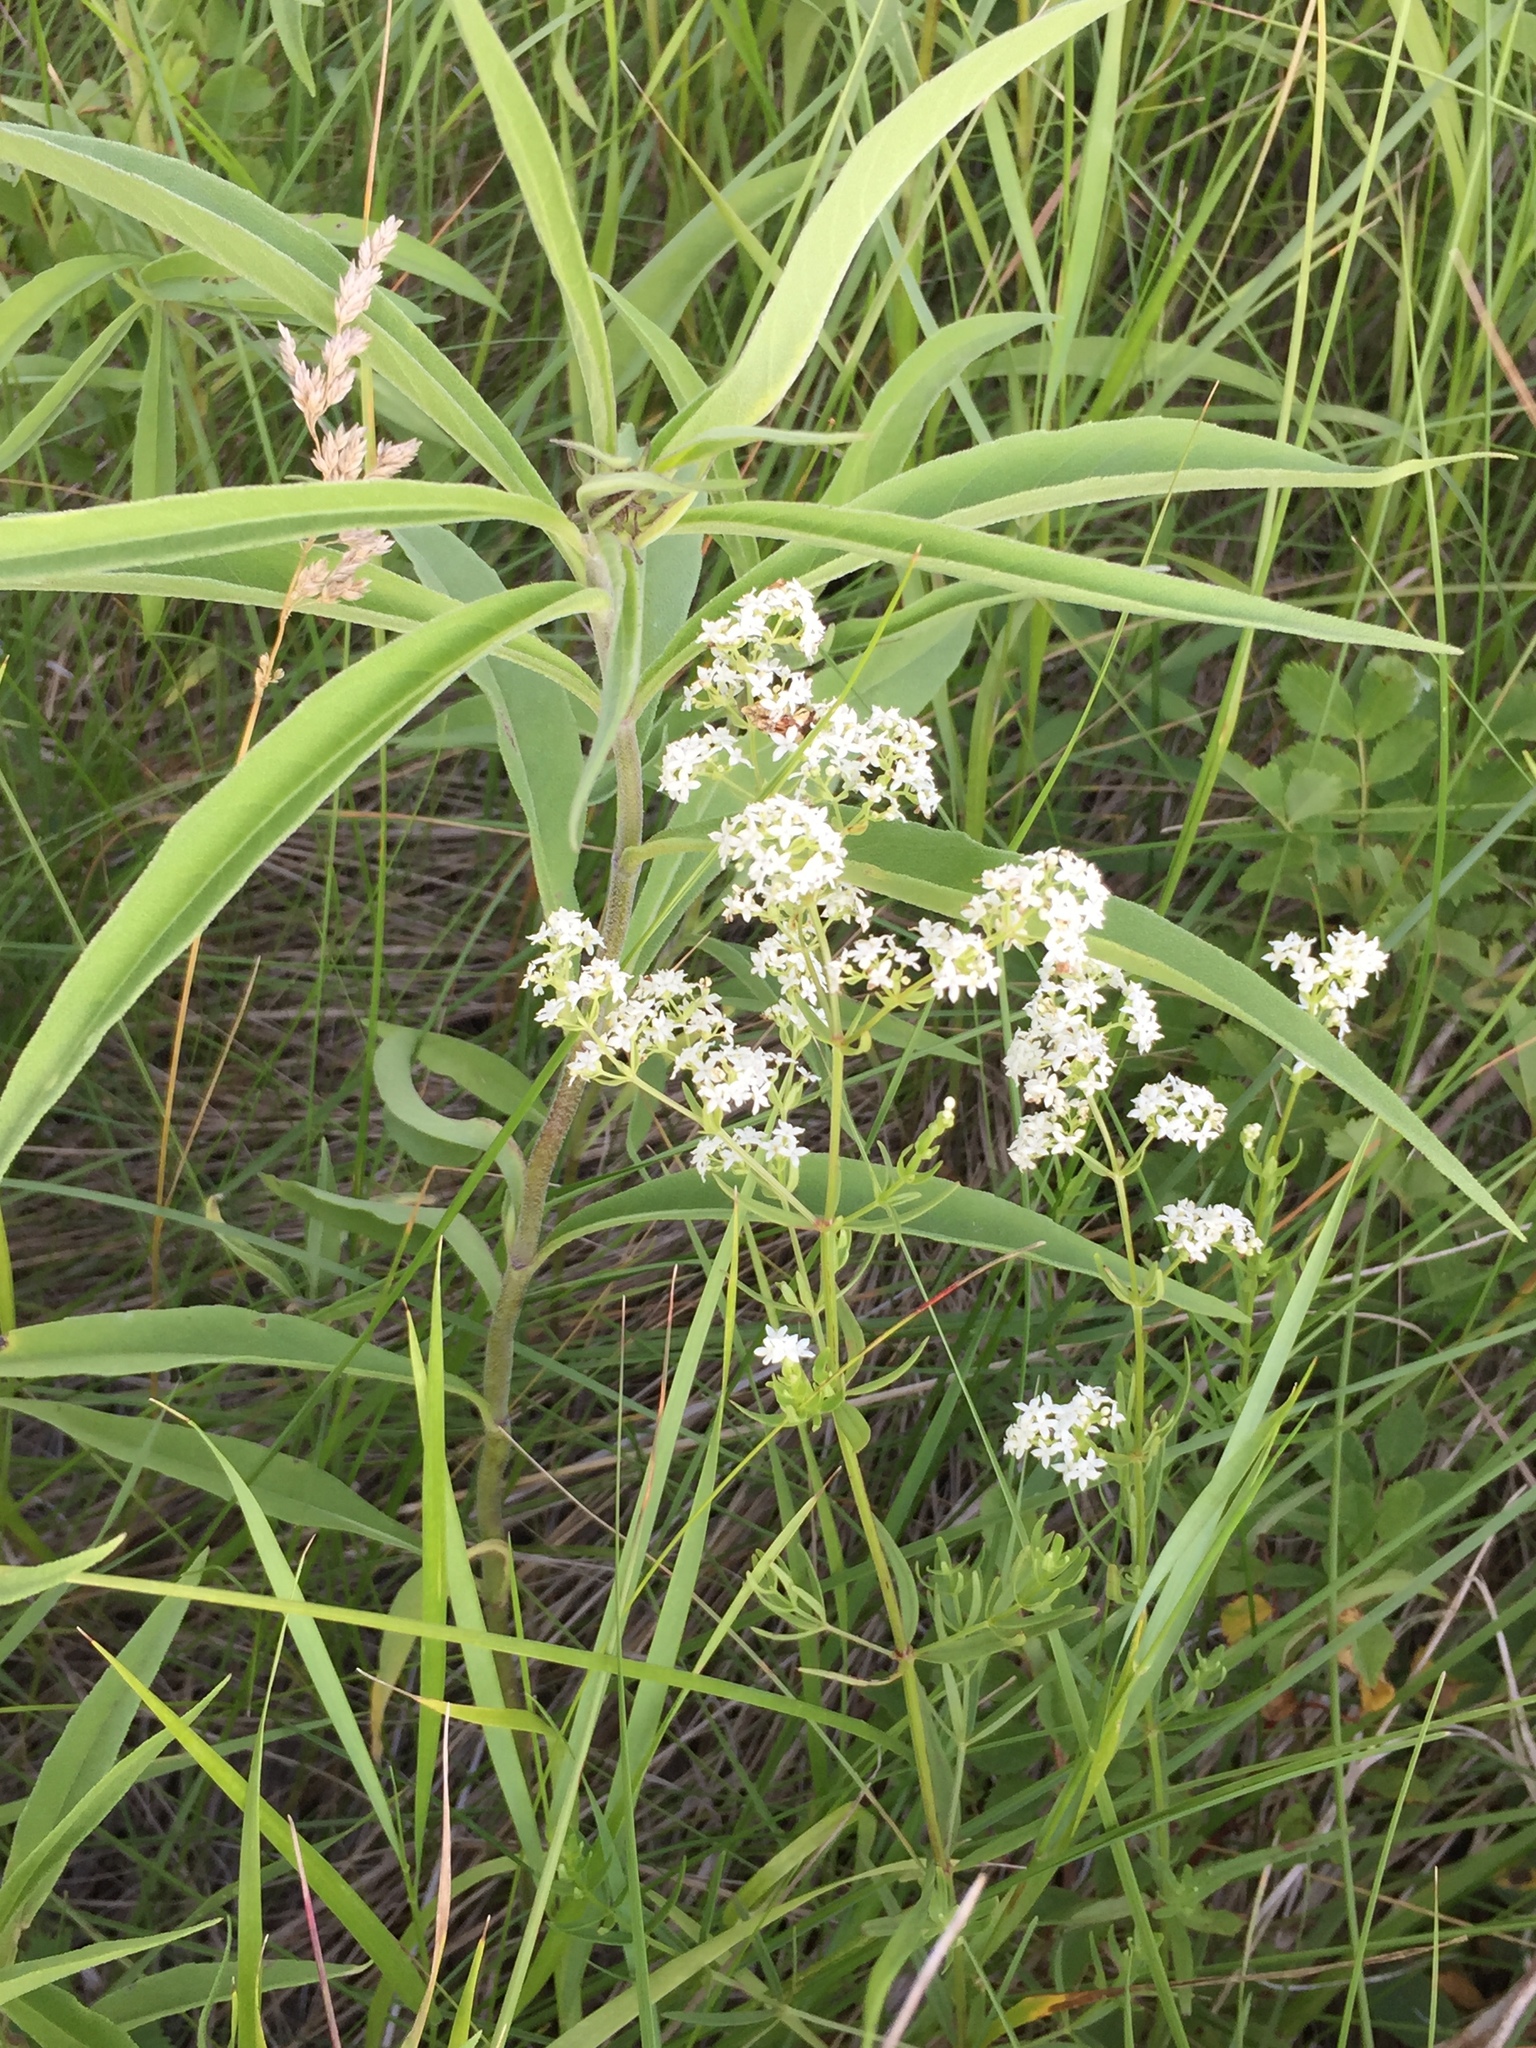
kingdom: Plantae
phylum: Tracheophyta
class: Magnoliopsida
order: Gentianales
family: Rubiaceae
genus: Galium
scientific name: Galium boreale
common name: Northern bedstraw
